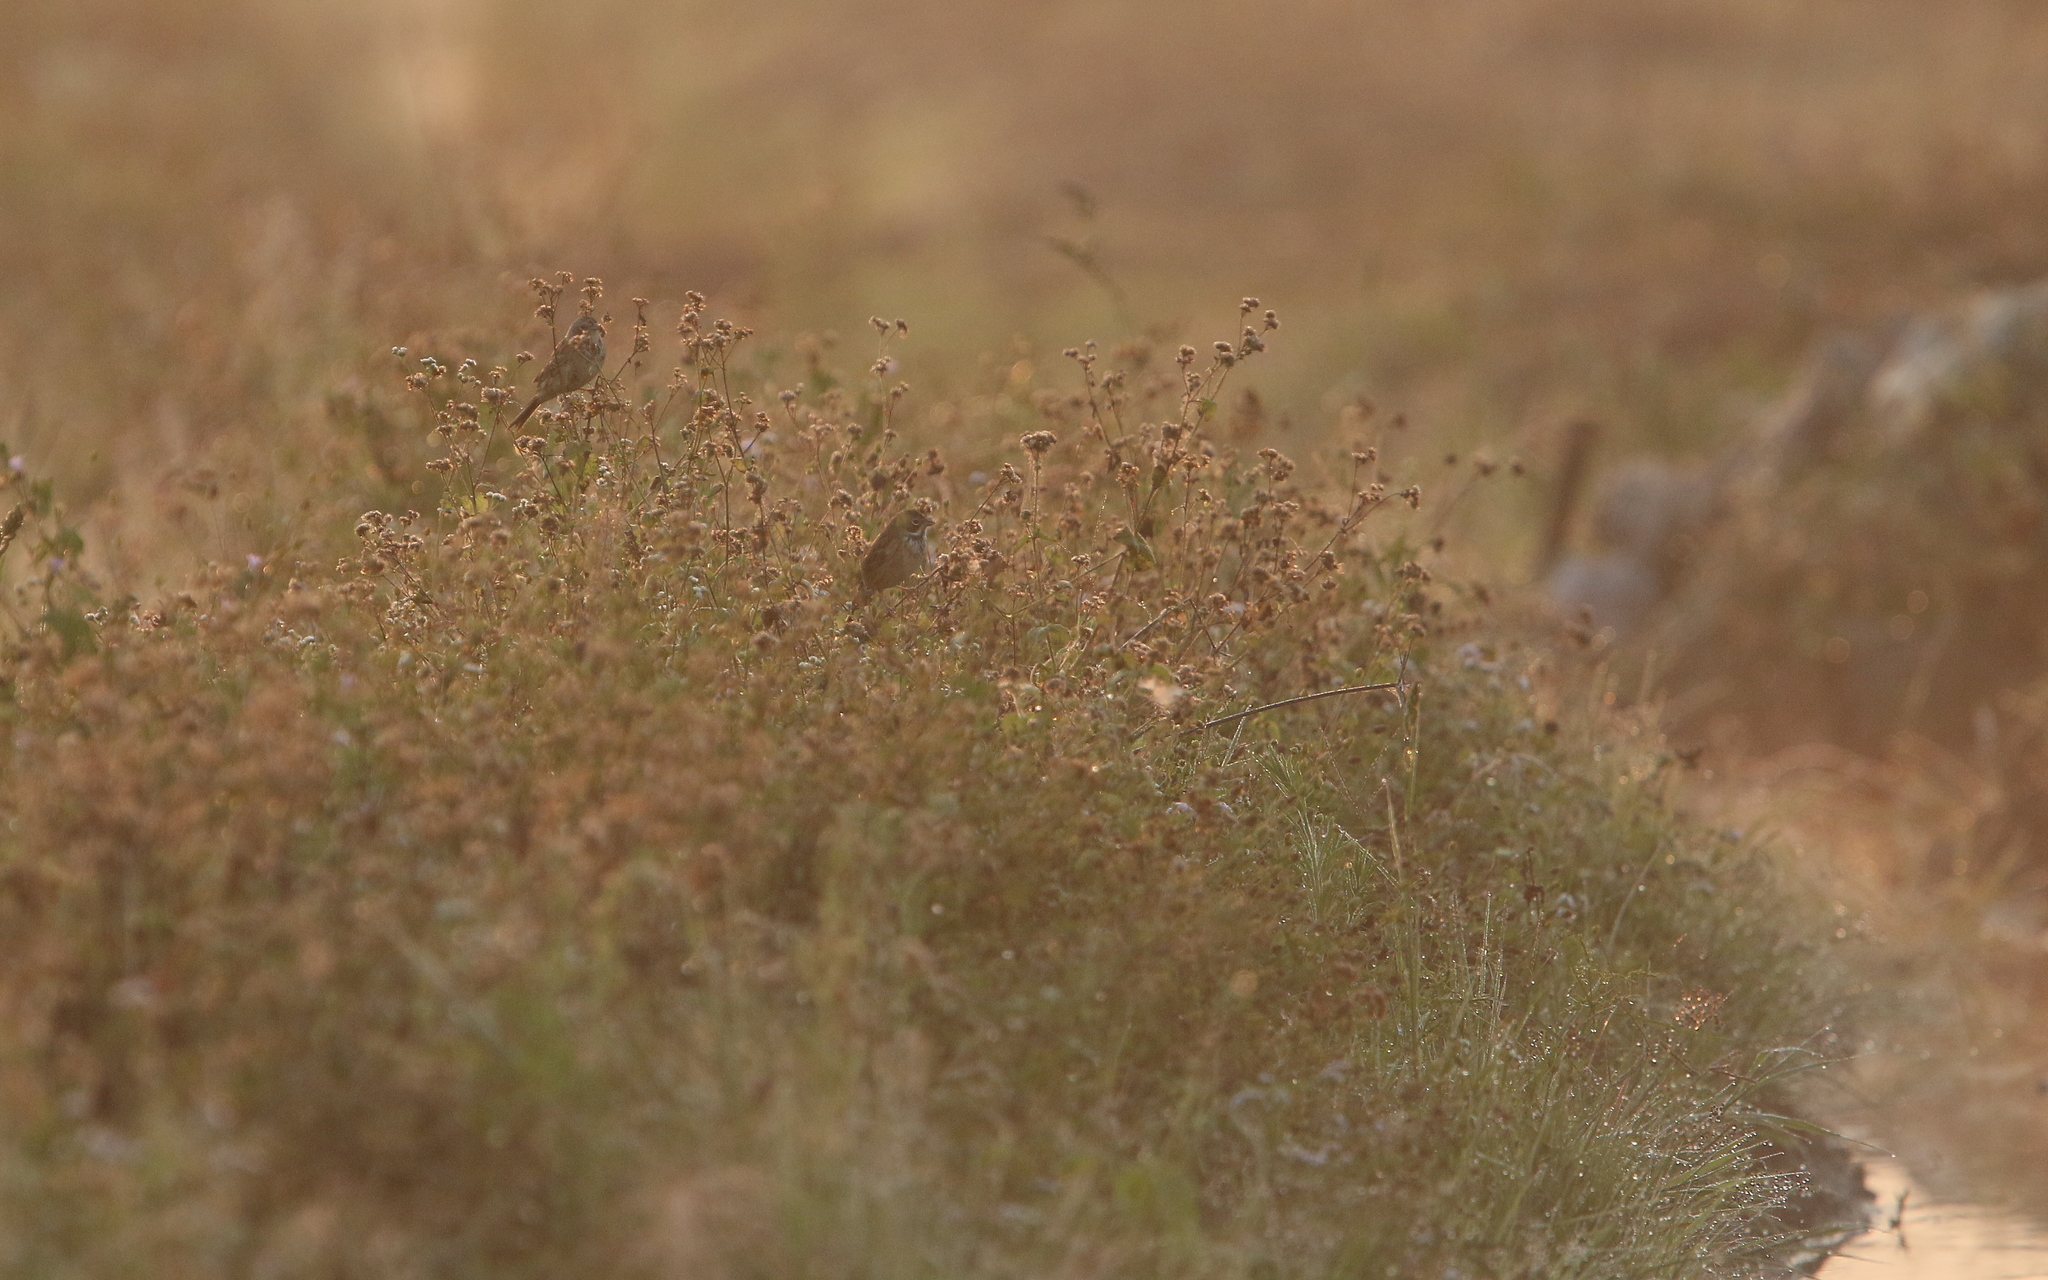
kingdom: Animalia
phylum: Chordata
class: Aves
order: Passeriformes
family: Emberizidae
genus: Emberiza
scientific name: Emberiza fucata
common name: Chestnut-eared bunting
